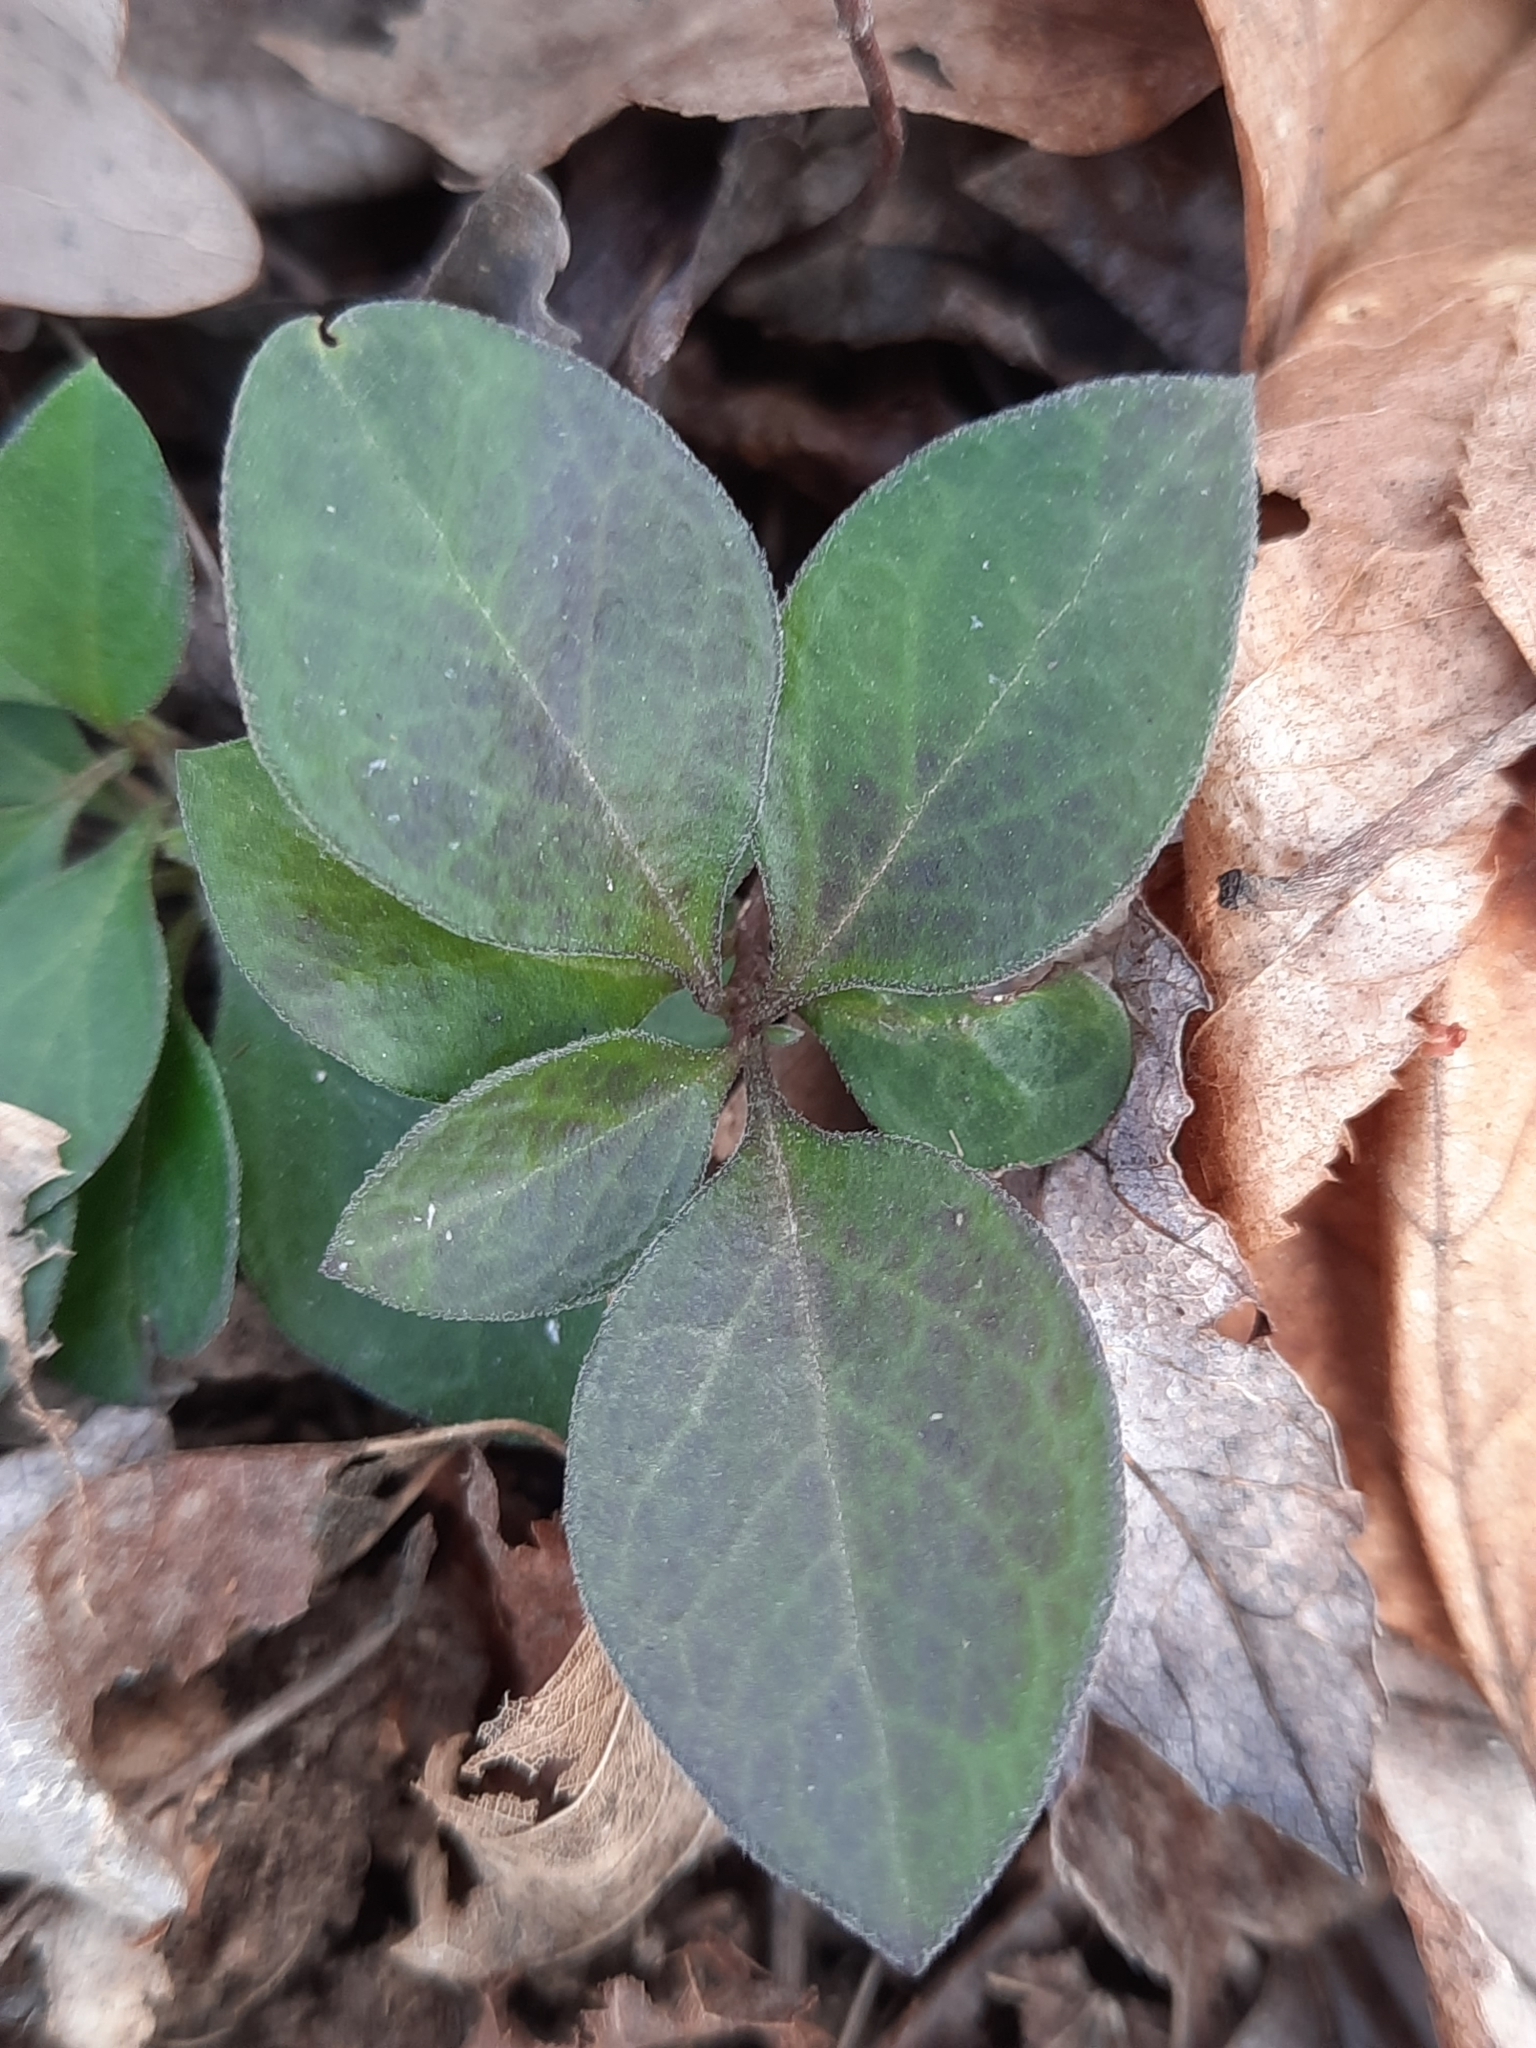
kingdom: Plantae
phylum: Tracheophyta
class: Magnoliopsida
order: Fabales
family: Polygalaceae
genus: Polygaloides
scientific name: Polygaloides paucifolia
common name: Bird-on-the-wing
